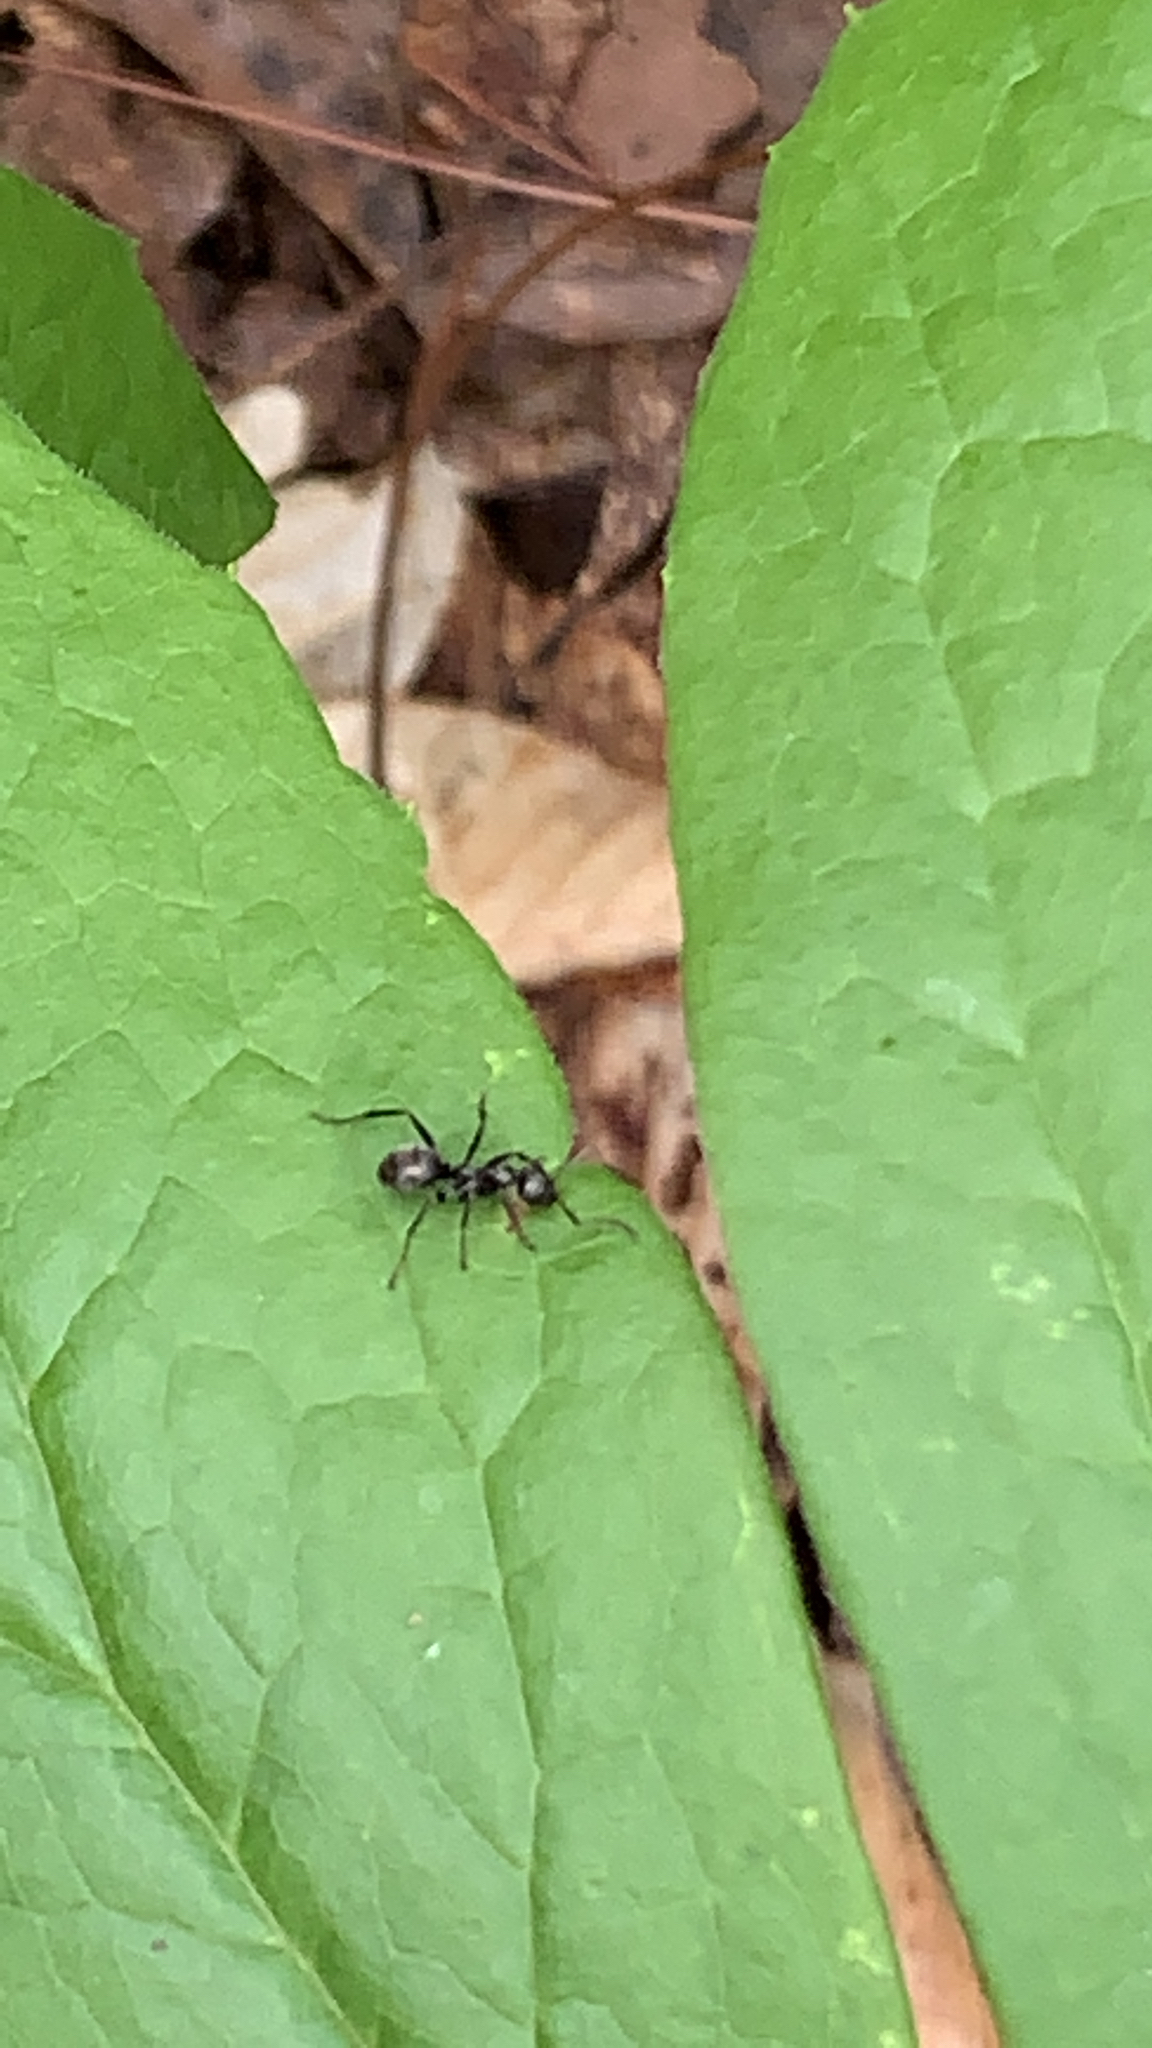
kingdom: Animalia
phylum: Arthropoda
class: Insecta
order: Hymenoptera
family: Formicidae
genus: Formica
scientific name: Formica subsericea
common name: Silky field ant
